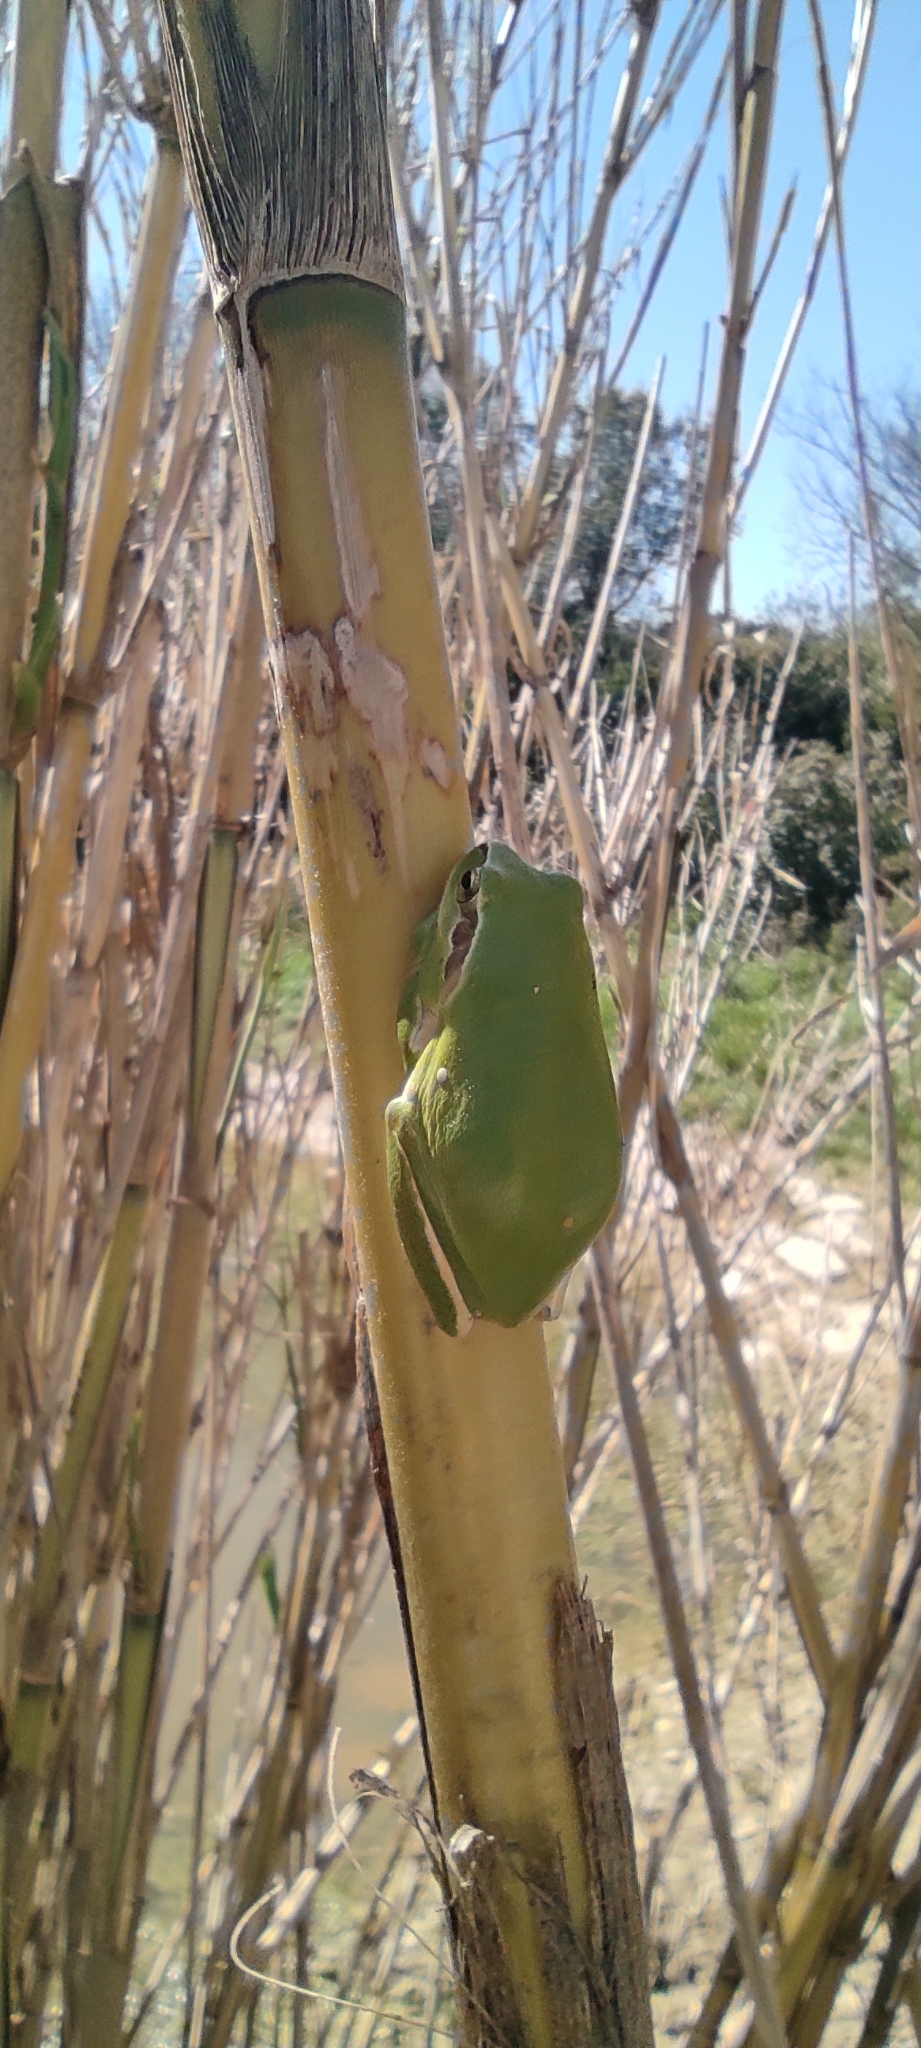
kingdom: Animalia
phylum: Chordata
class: Amphibia
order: Anura
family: Hylidae
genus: Hyla
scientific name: Hyla meridionalis
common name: Stripeless tree frog
